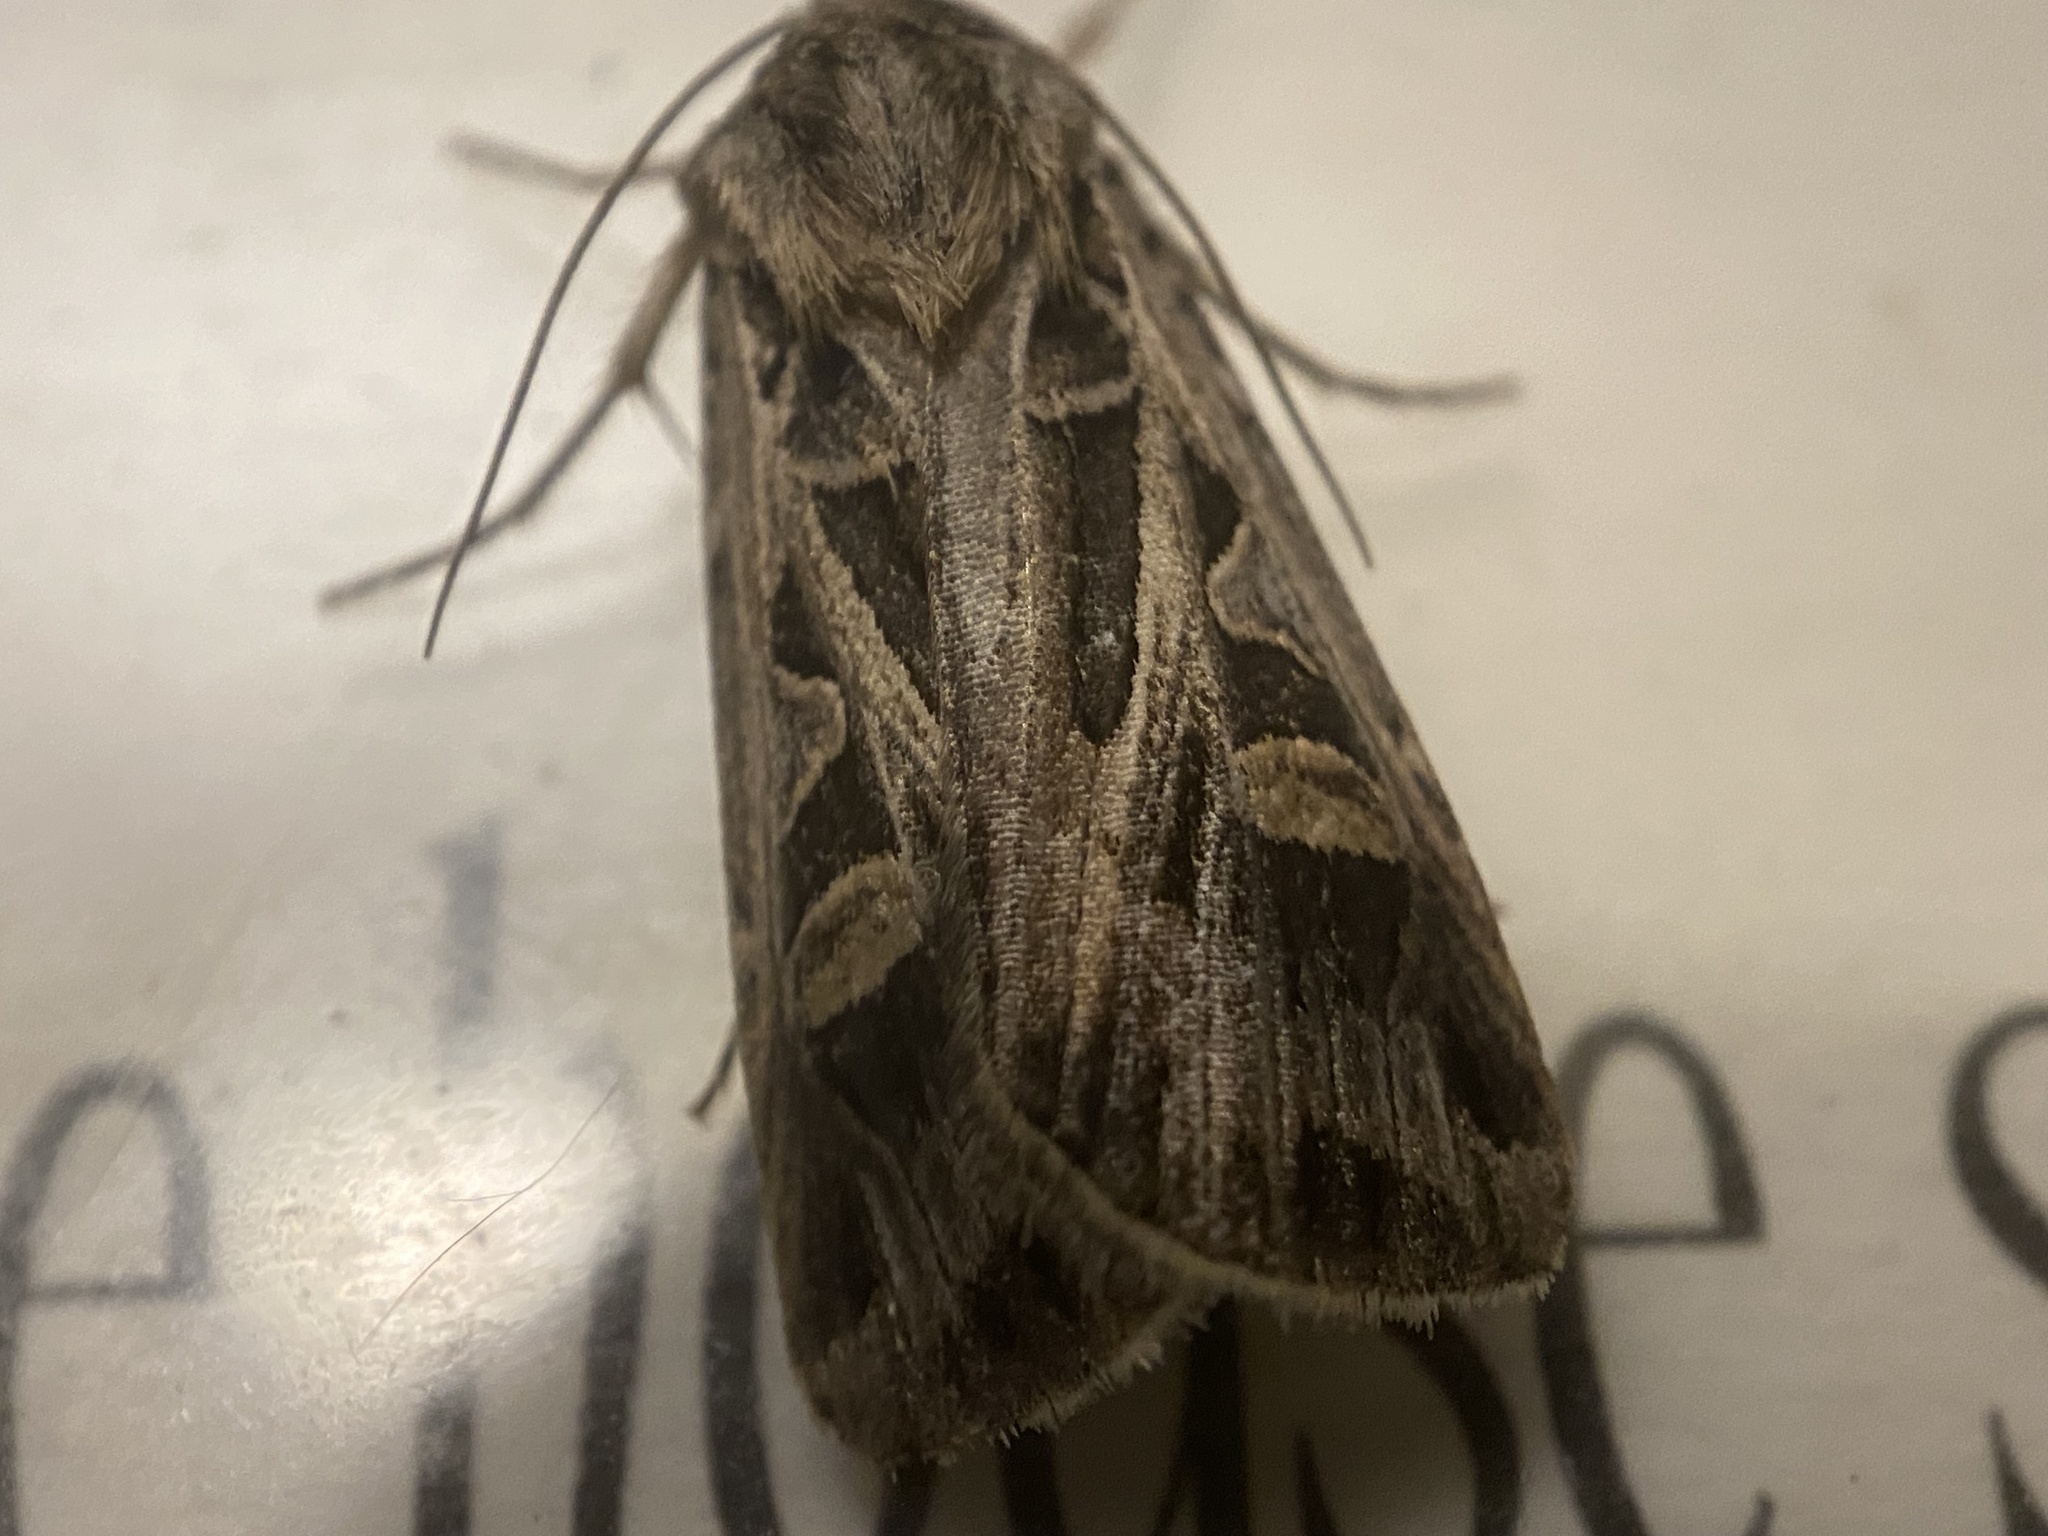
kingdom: Animalia
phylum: Arthropoda
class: Insecta
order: Lepidoptera
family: Noctuidae
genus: Feltia
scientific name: Feltia jaculifera
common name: Dingy cutworm moth
